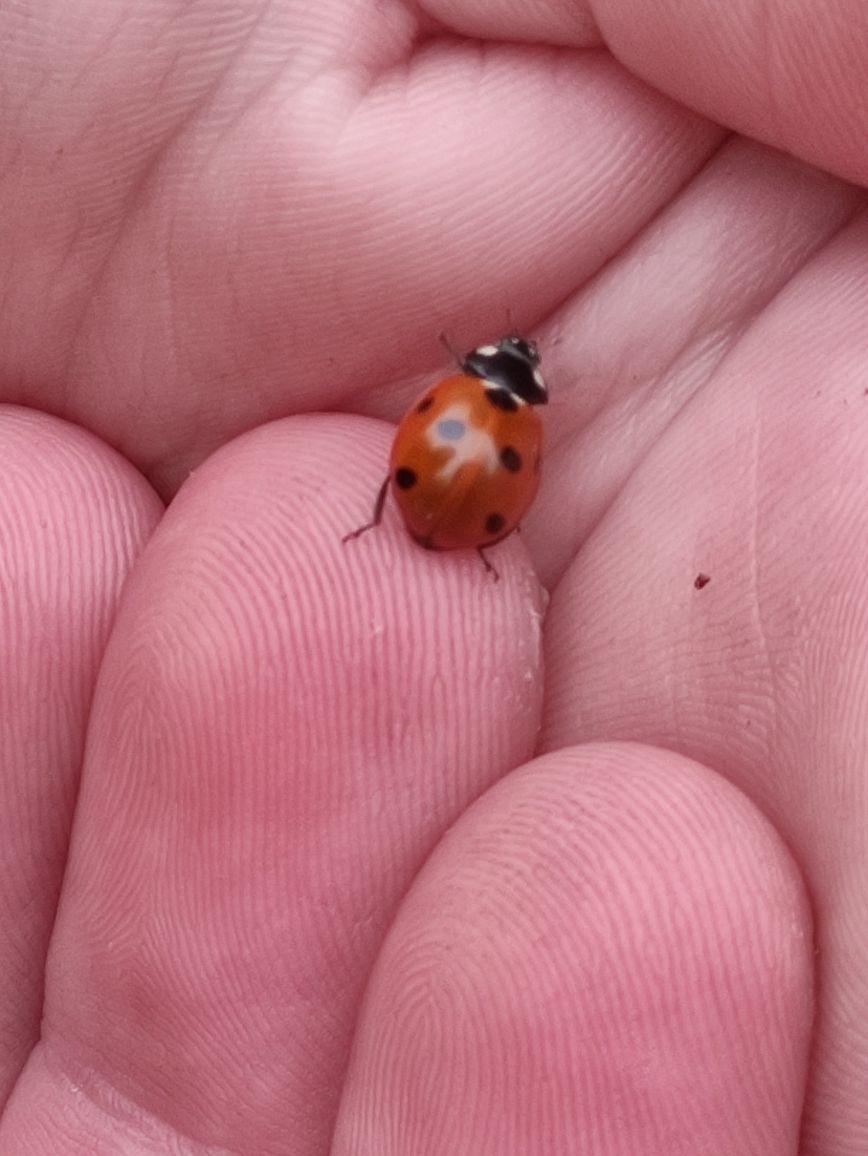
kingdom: Animalia
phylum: Arthropoda
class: Insecta
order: Coleoptera
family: Coccinellidae
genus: Coccinella
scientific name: Coccinella septempunctata
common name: Sevenspotted lady beetle
